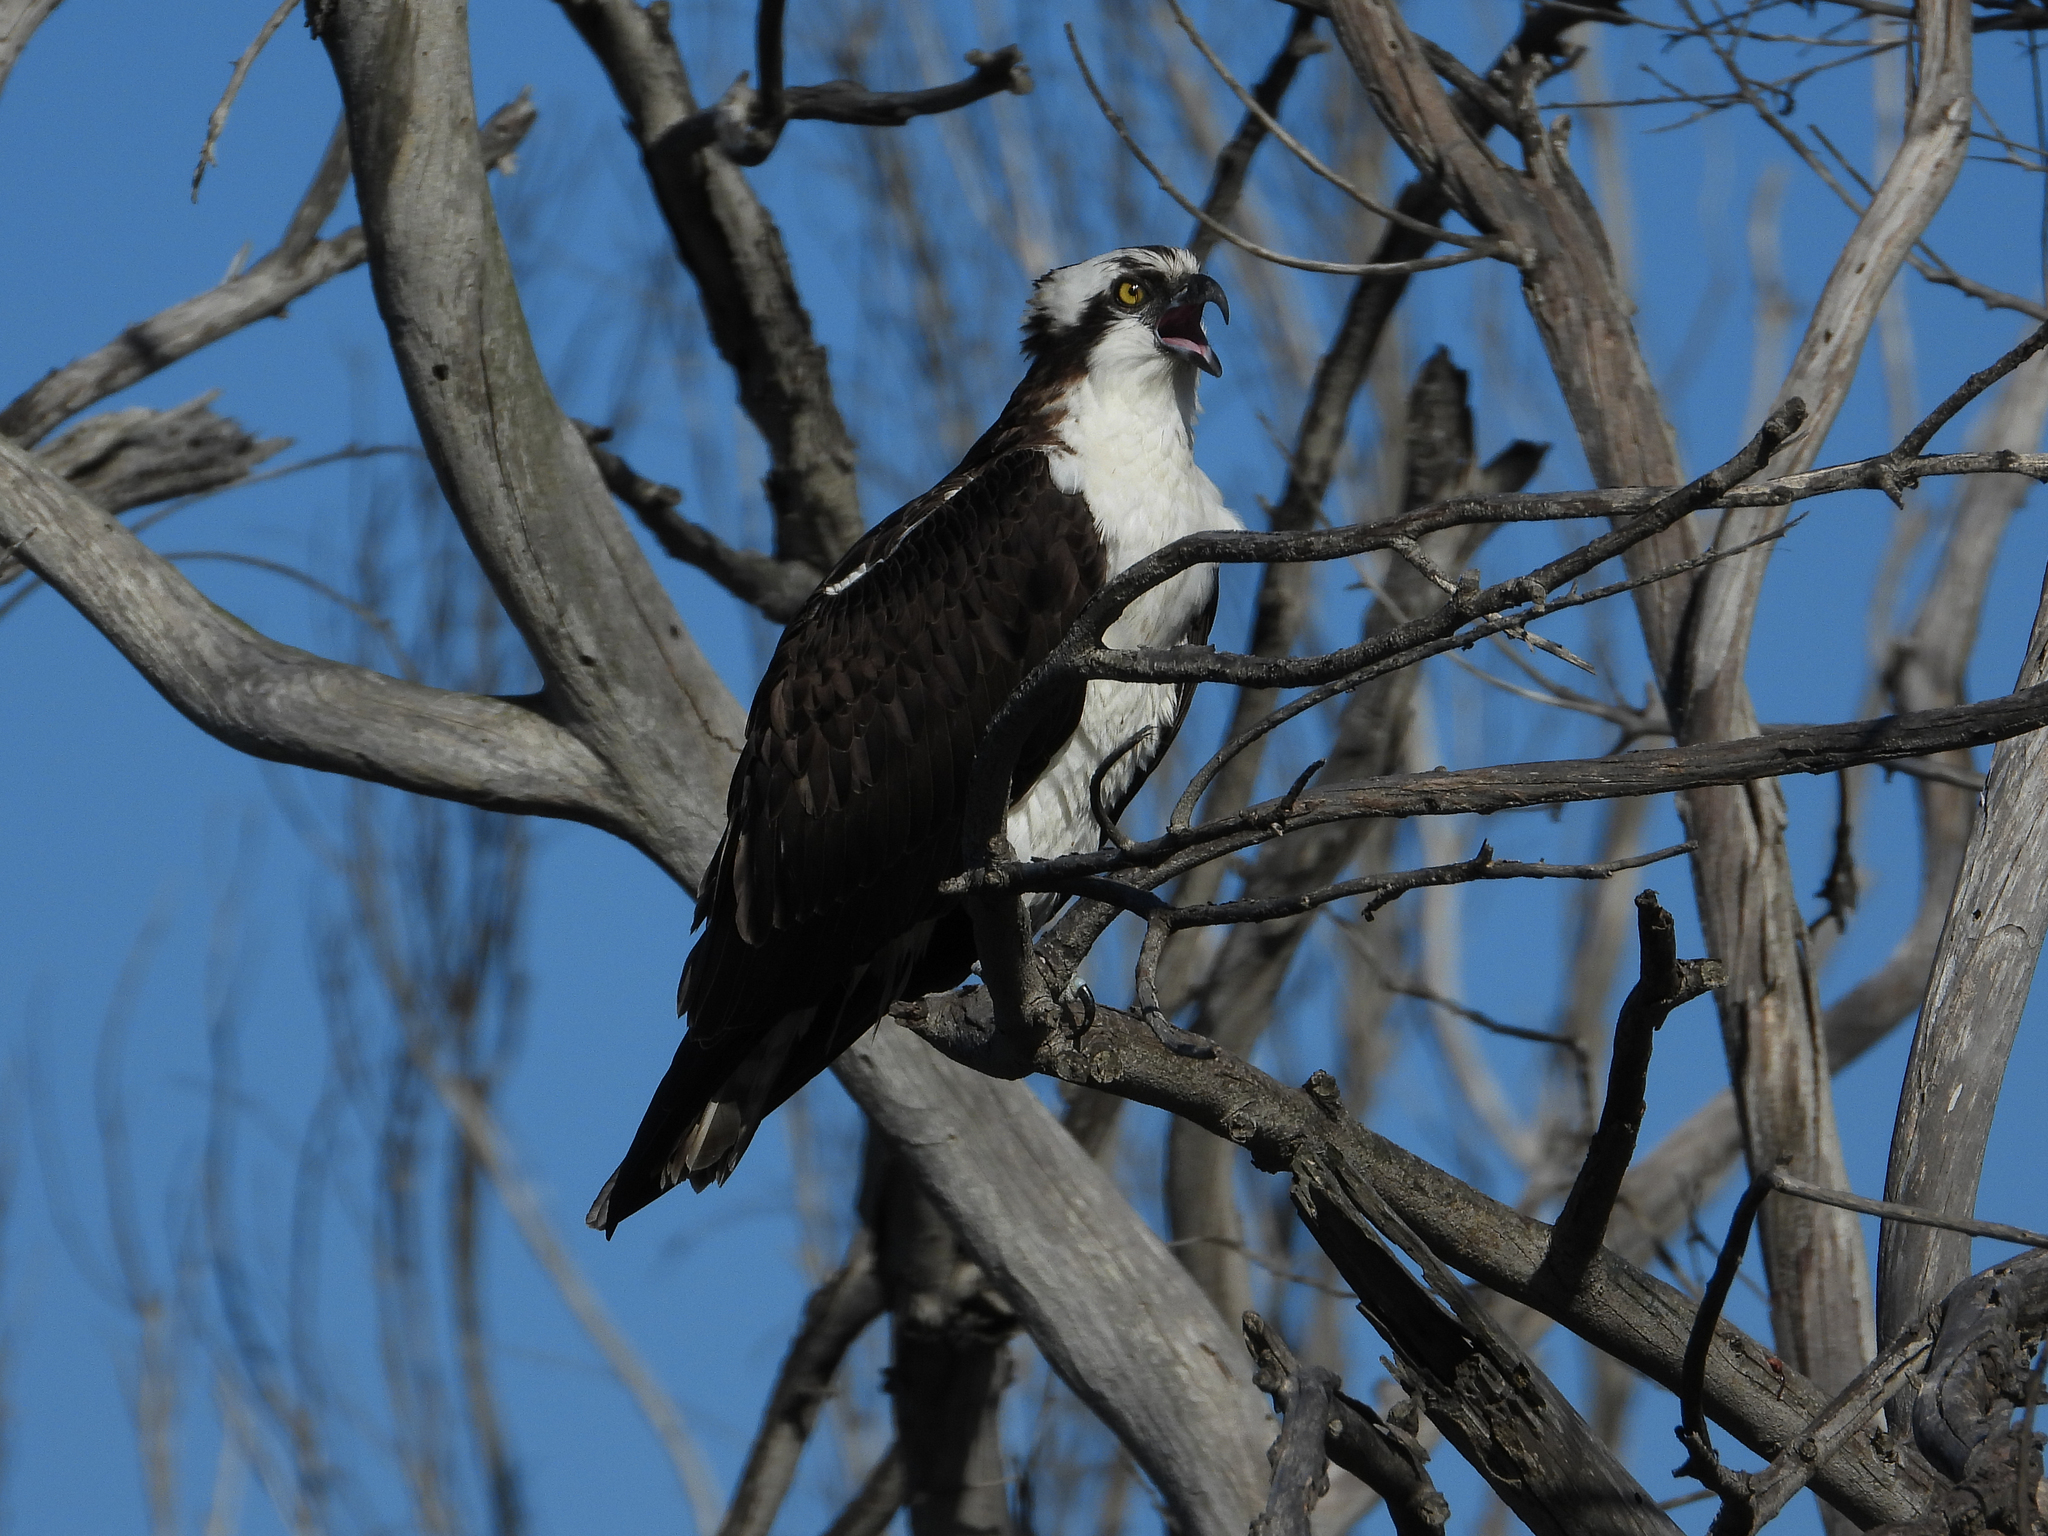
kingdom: Animalia
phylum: Chordata
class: Aves
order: Accipitriformes
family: Pandionidae
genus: Pandion
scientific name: Pandion haliaetus
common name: Osprey
